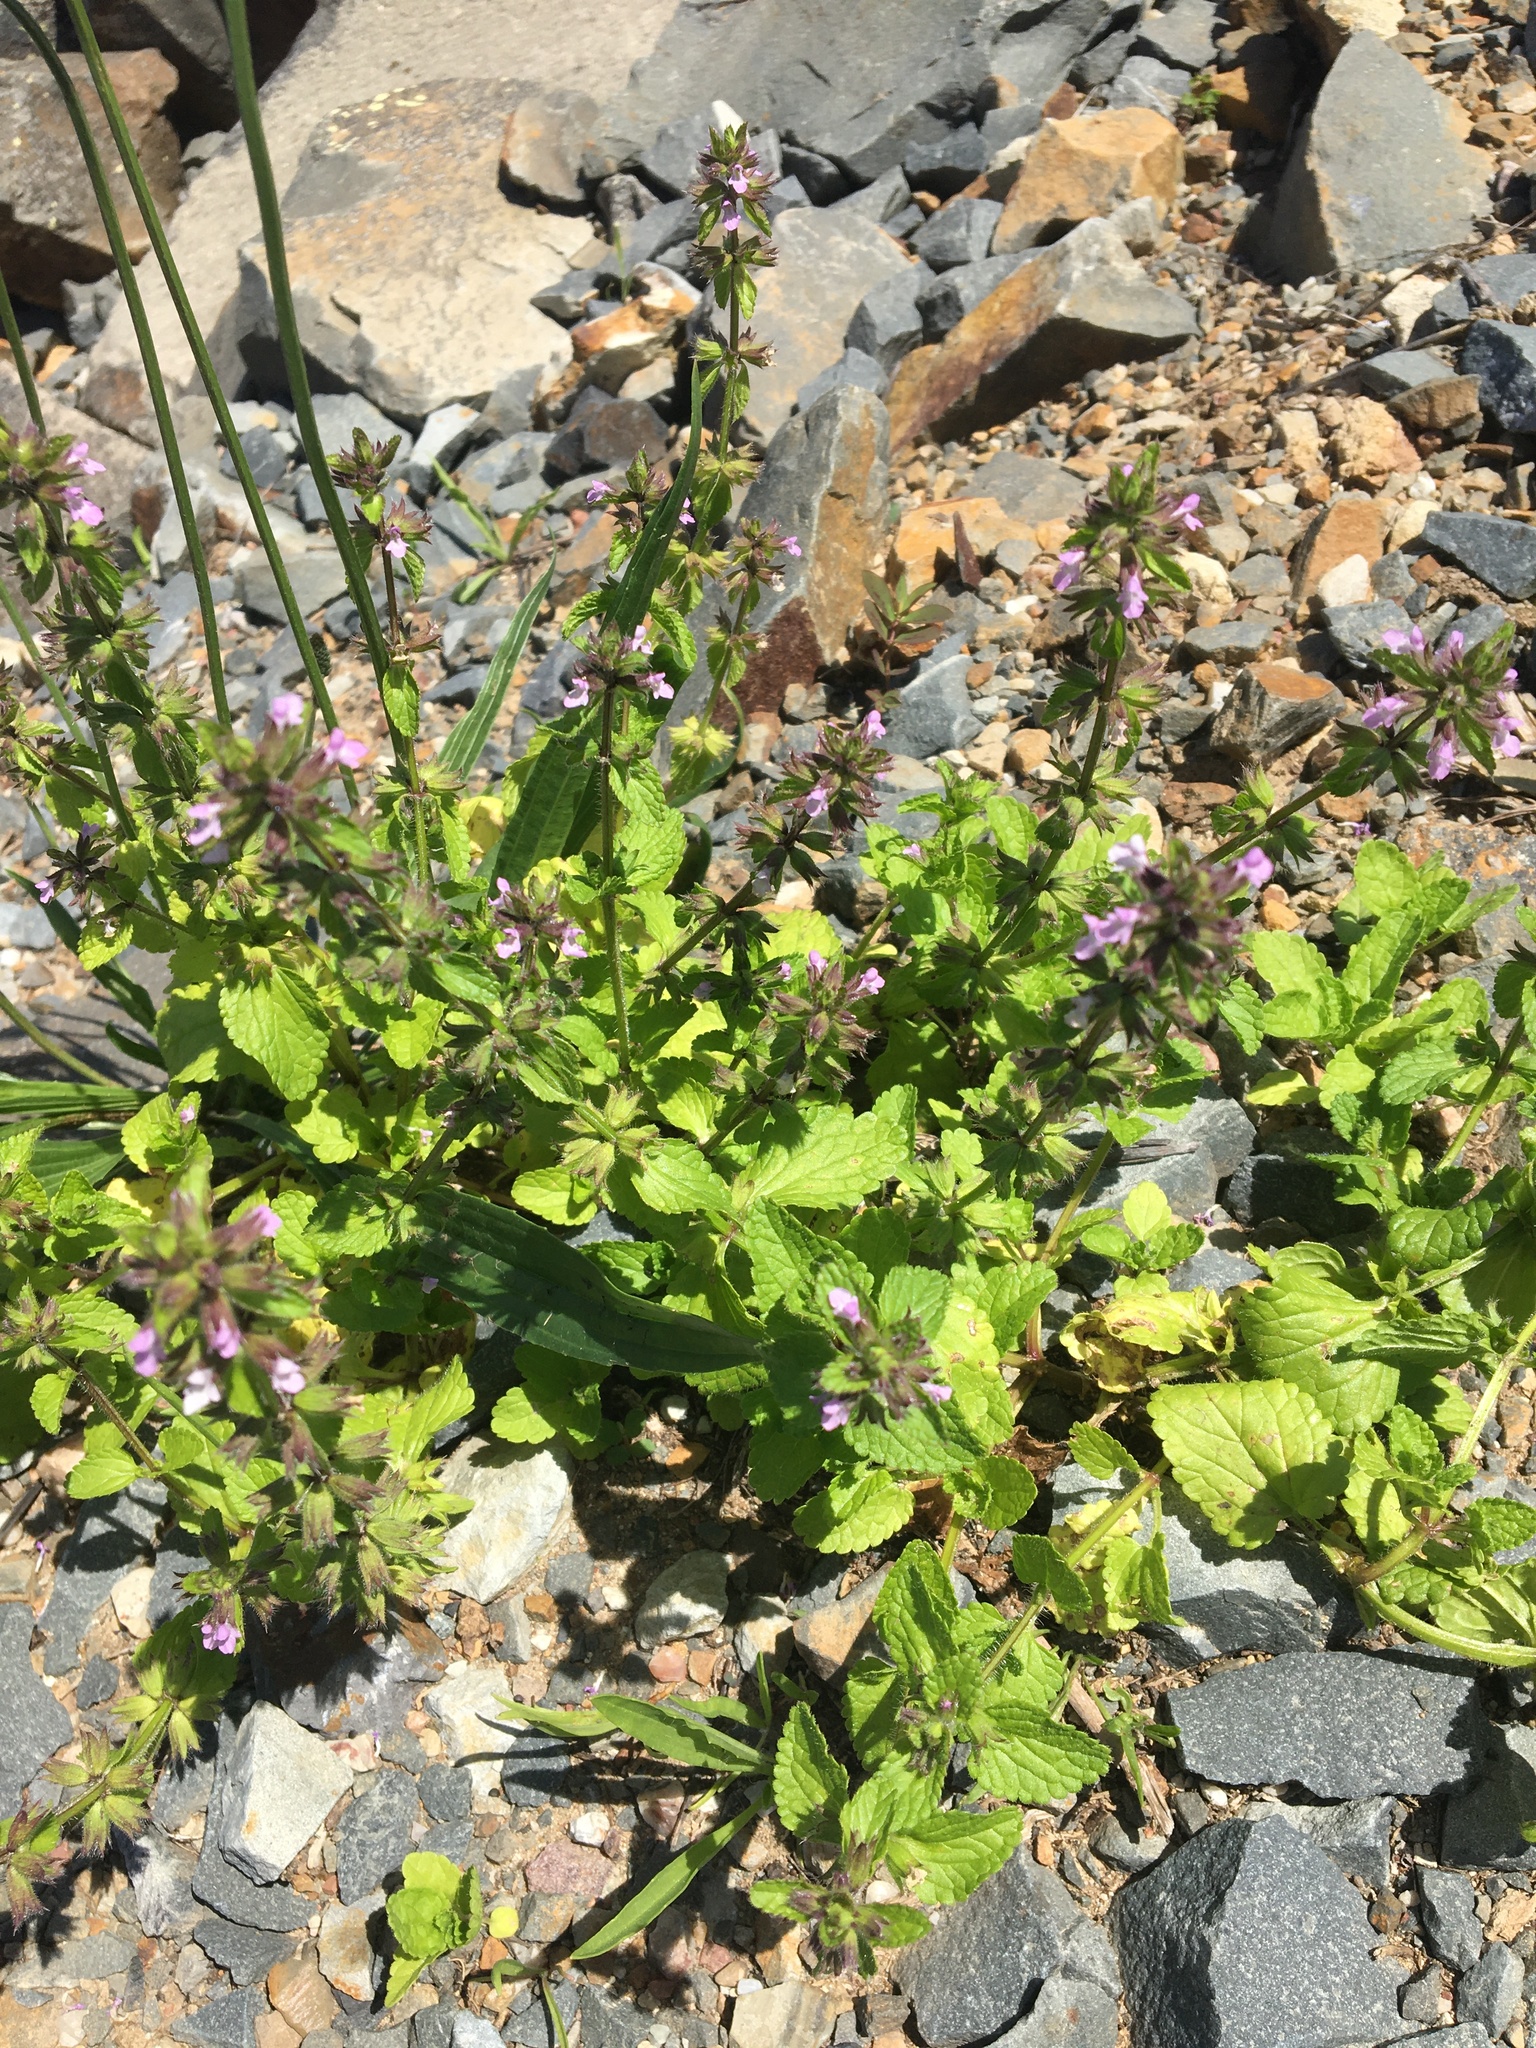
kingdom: Plantae
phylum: Tracheophyta
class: Magnoliopsida
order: Lamiales
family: Lamiaceae
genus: Stachys
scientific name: Stachys arvensis
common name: Field woundwort
